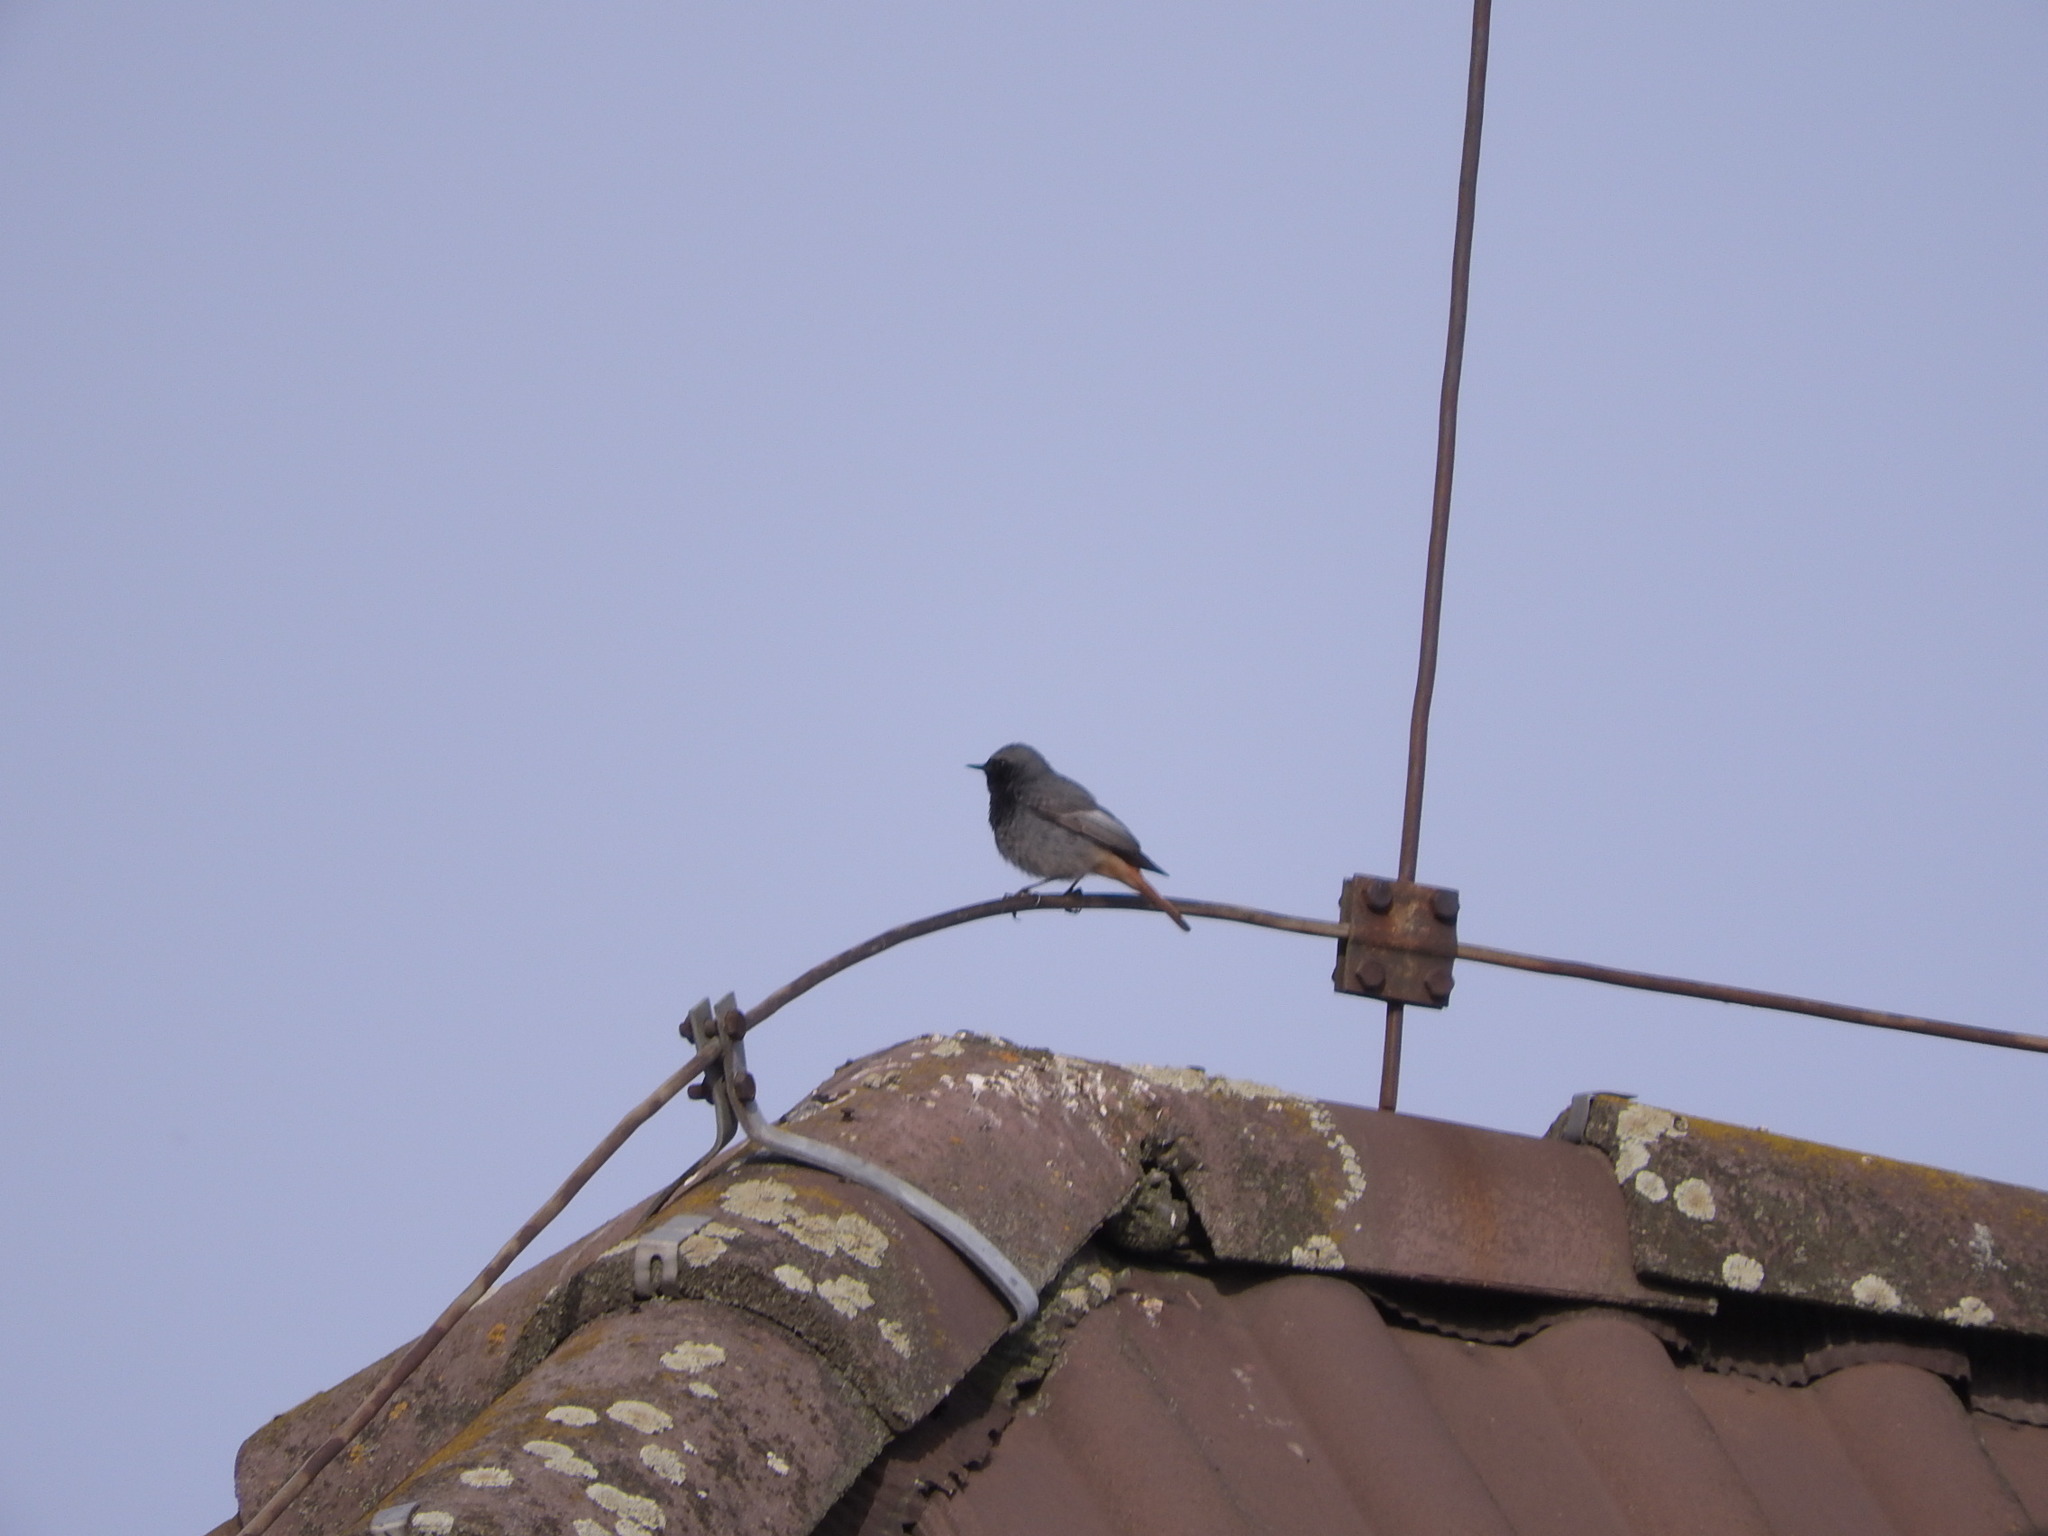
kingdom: Animalia
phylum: Chordata
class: Aves
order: Passeriformes
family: Muscicapidae
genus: Phoenicurus
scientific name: Phoenicurus ochruros
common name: Black redstart
